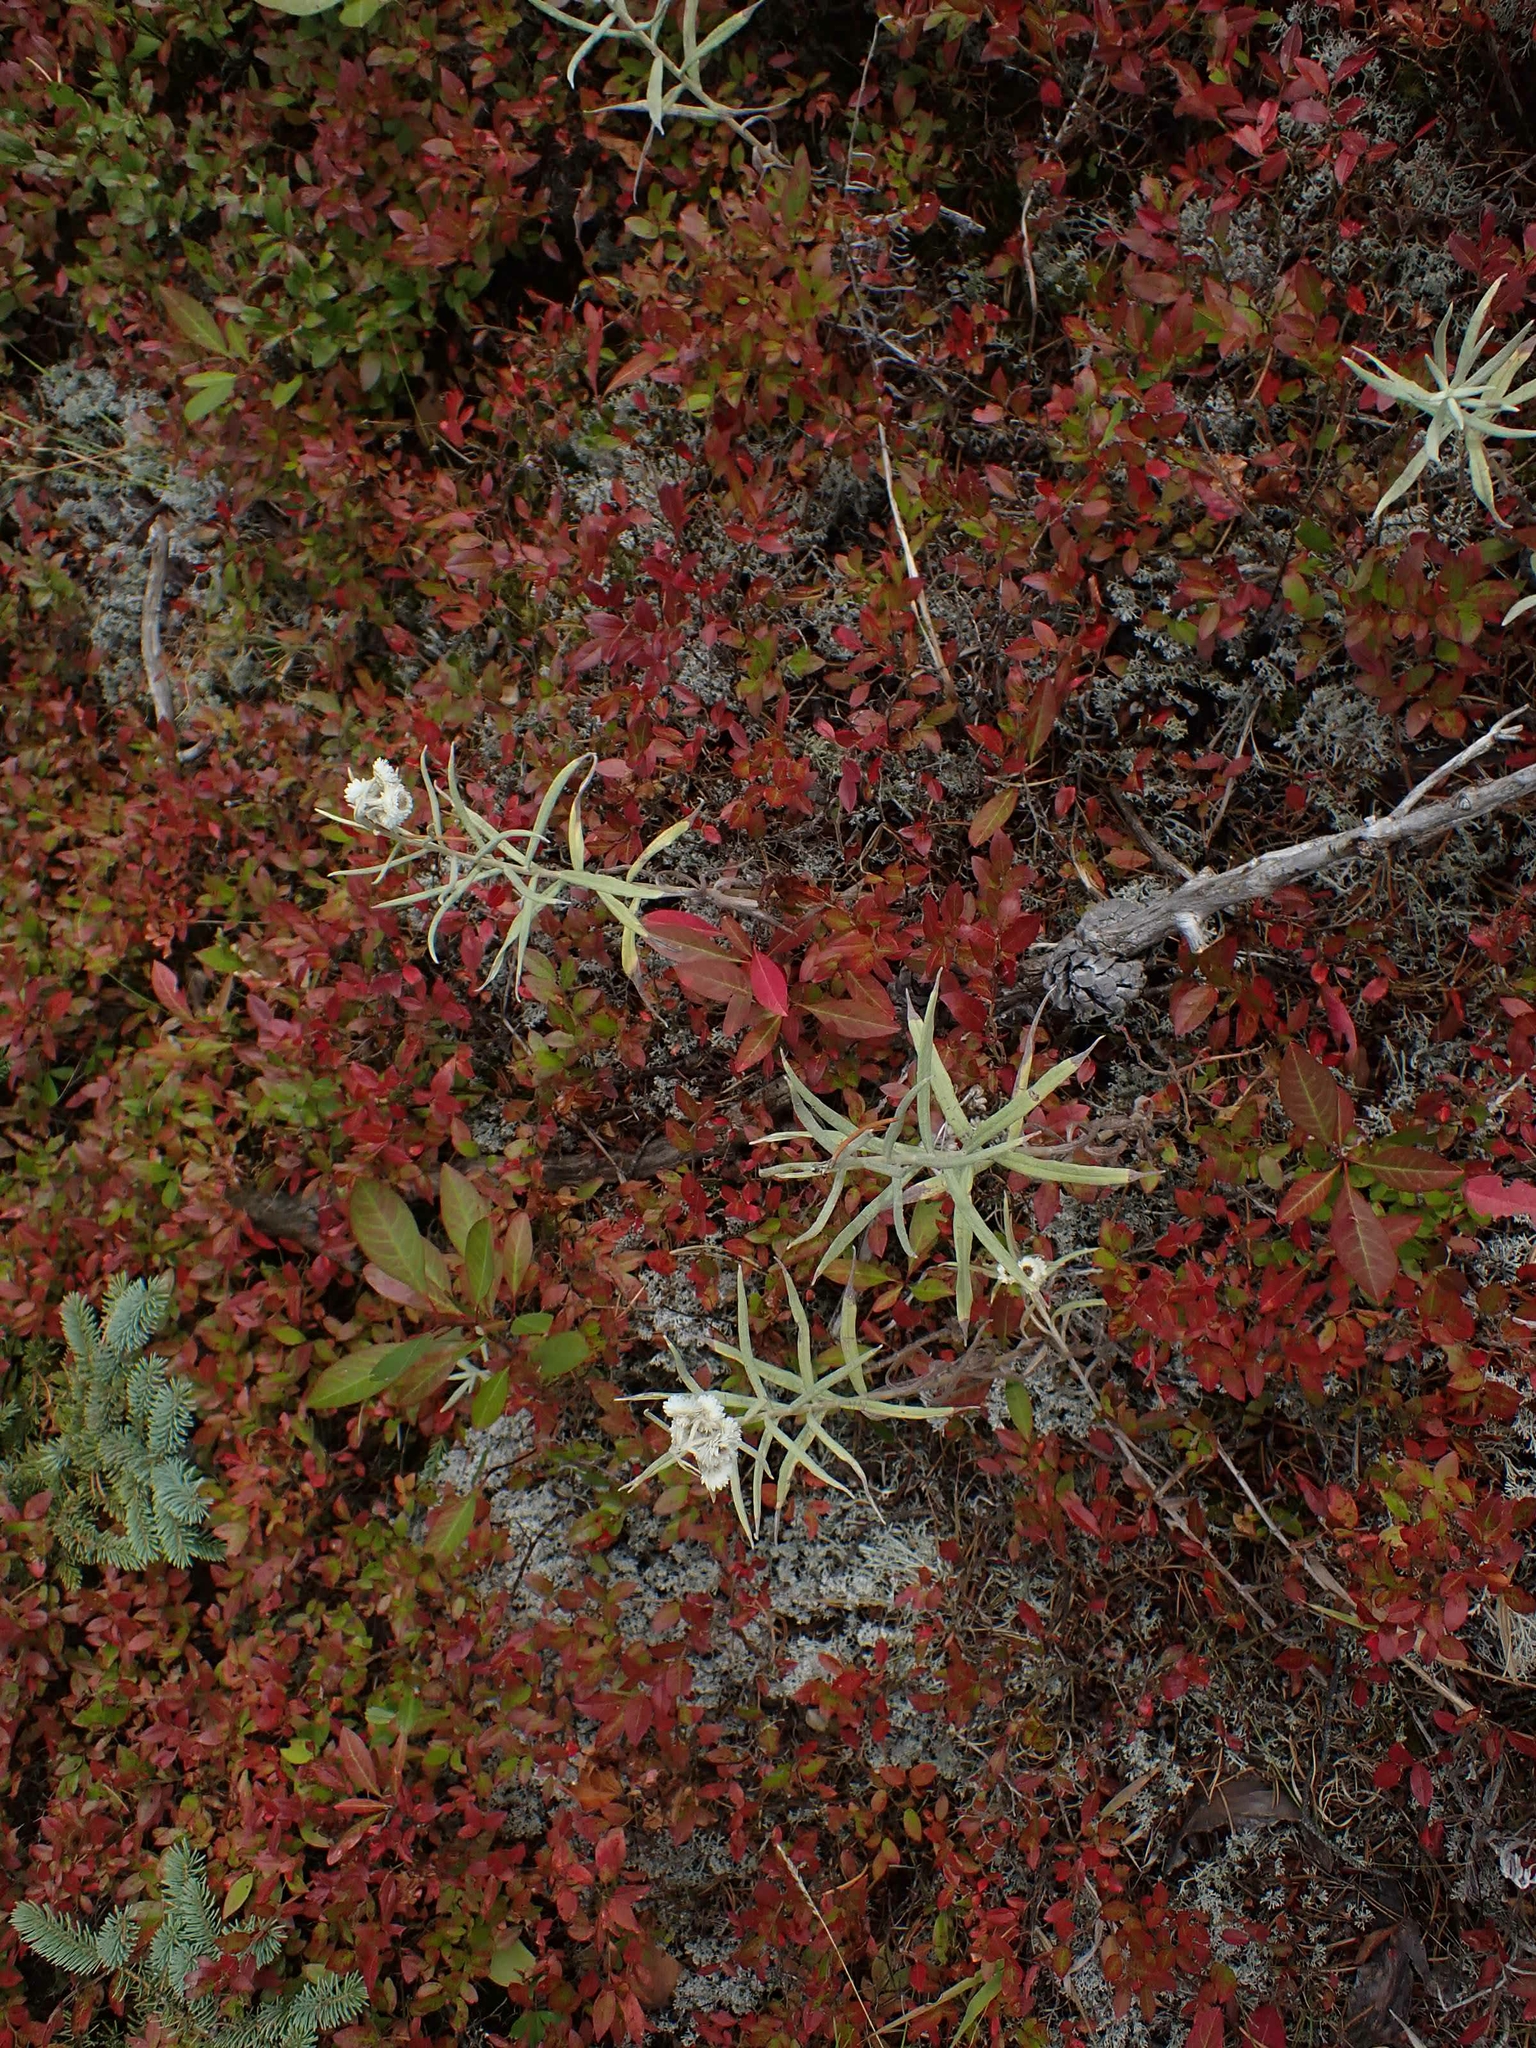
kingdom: Plantae
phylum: Tracheophyta
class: Magnoliopsida
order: Asterales
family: Asteraceae
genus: Anaphalis
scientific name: Anaphalis margaritacea
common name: Pearly everlasting
